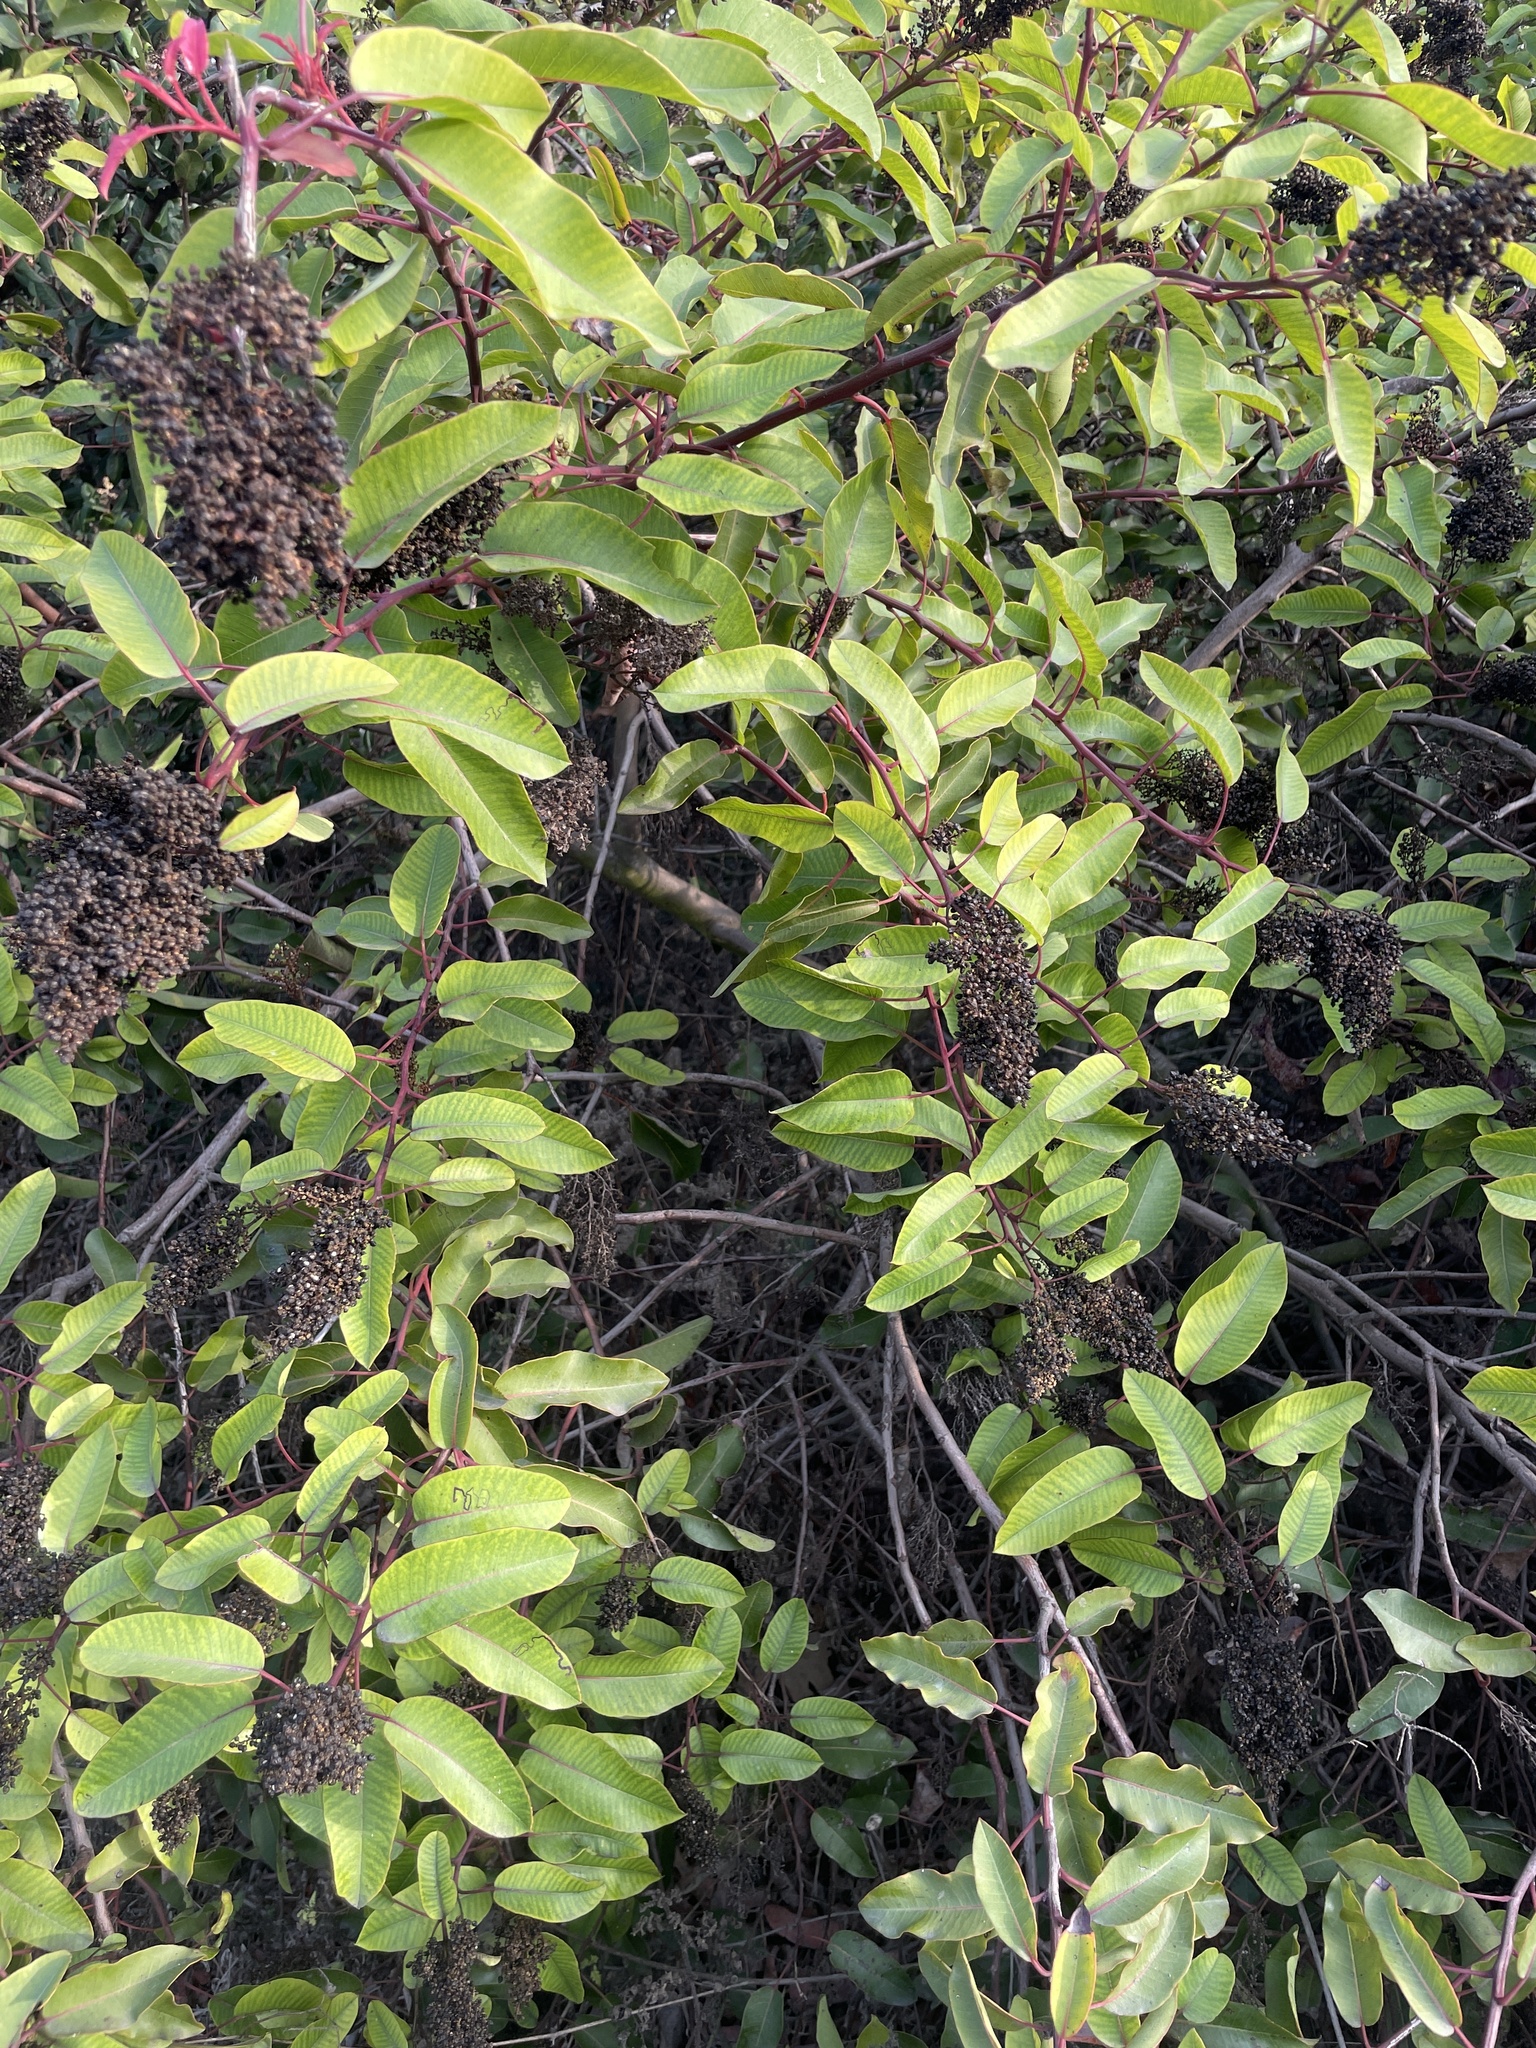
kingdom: Plantae
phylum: Tracheophyta
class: Magnoliopsida
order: Sapindales
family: Anacardiaceae
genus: Malosma
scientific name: Malosma laurina
